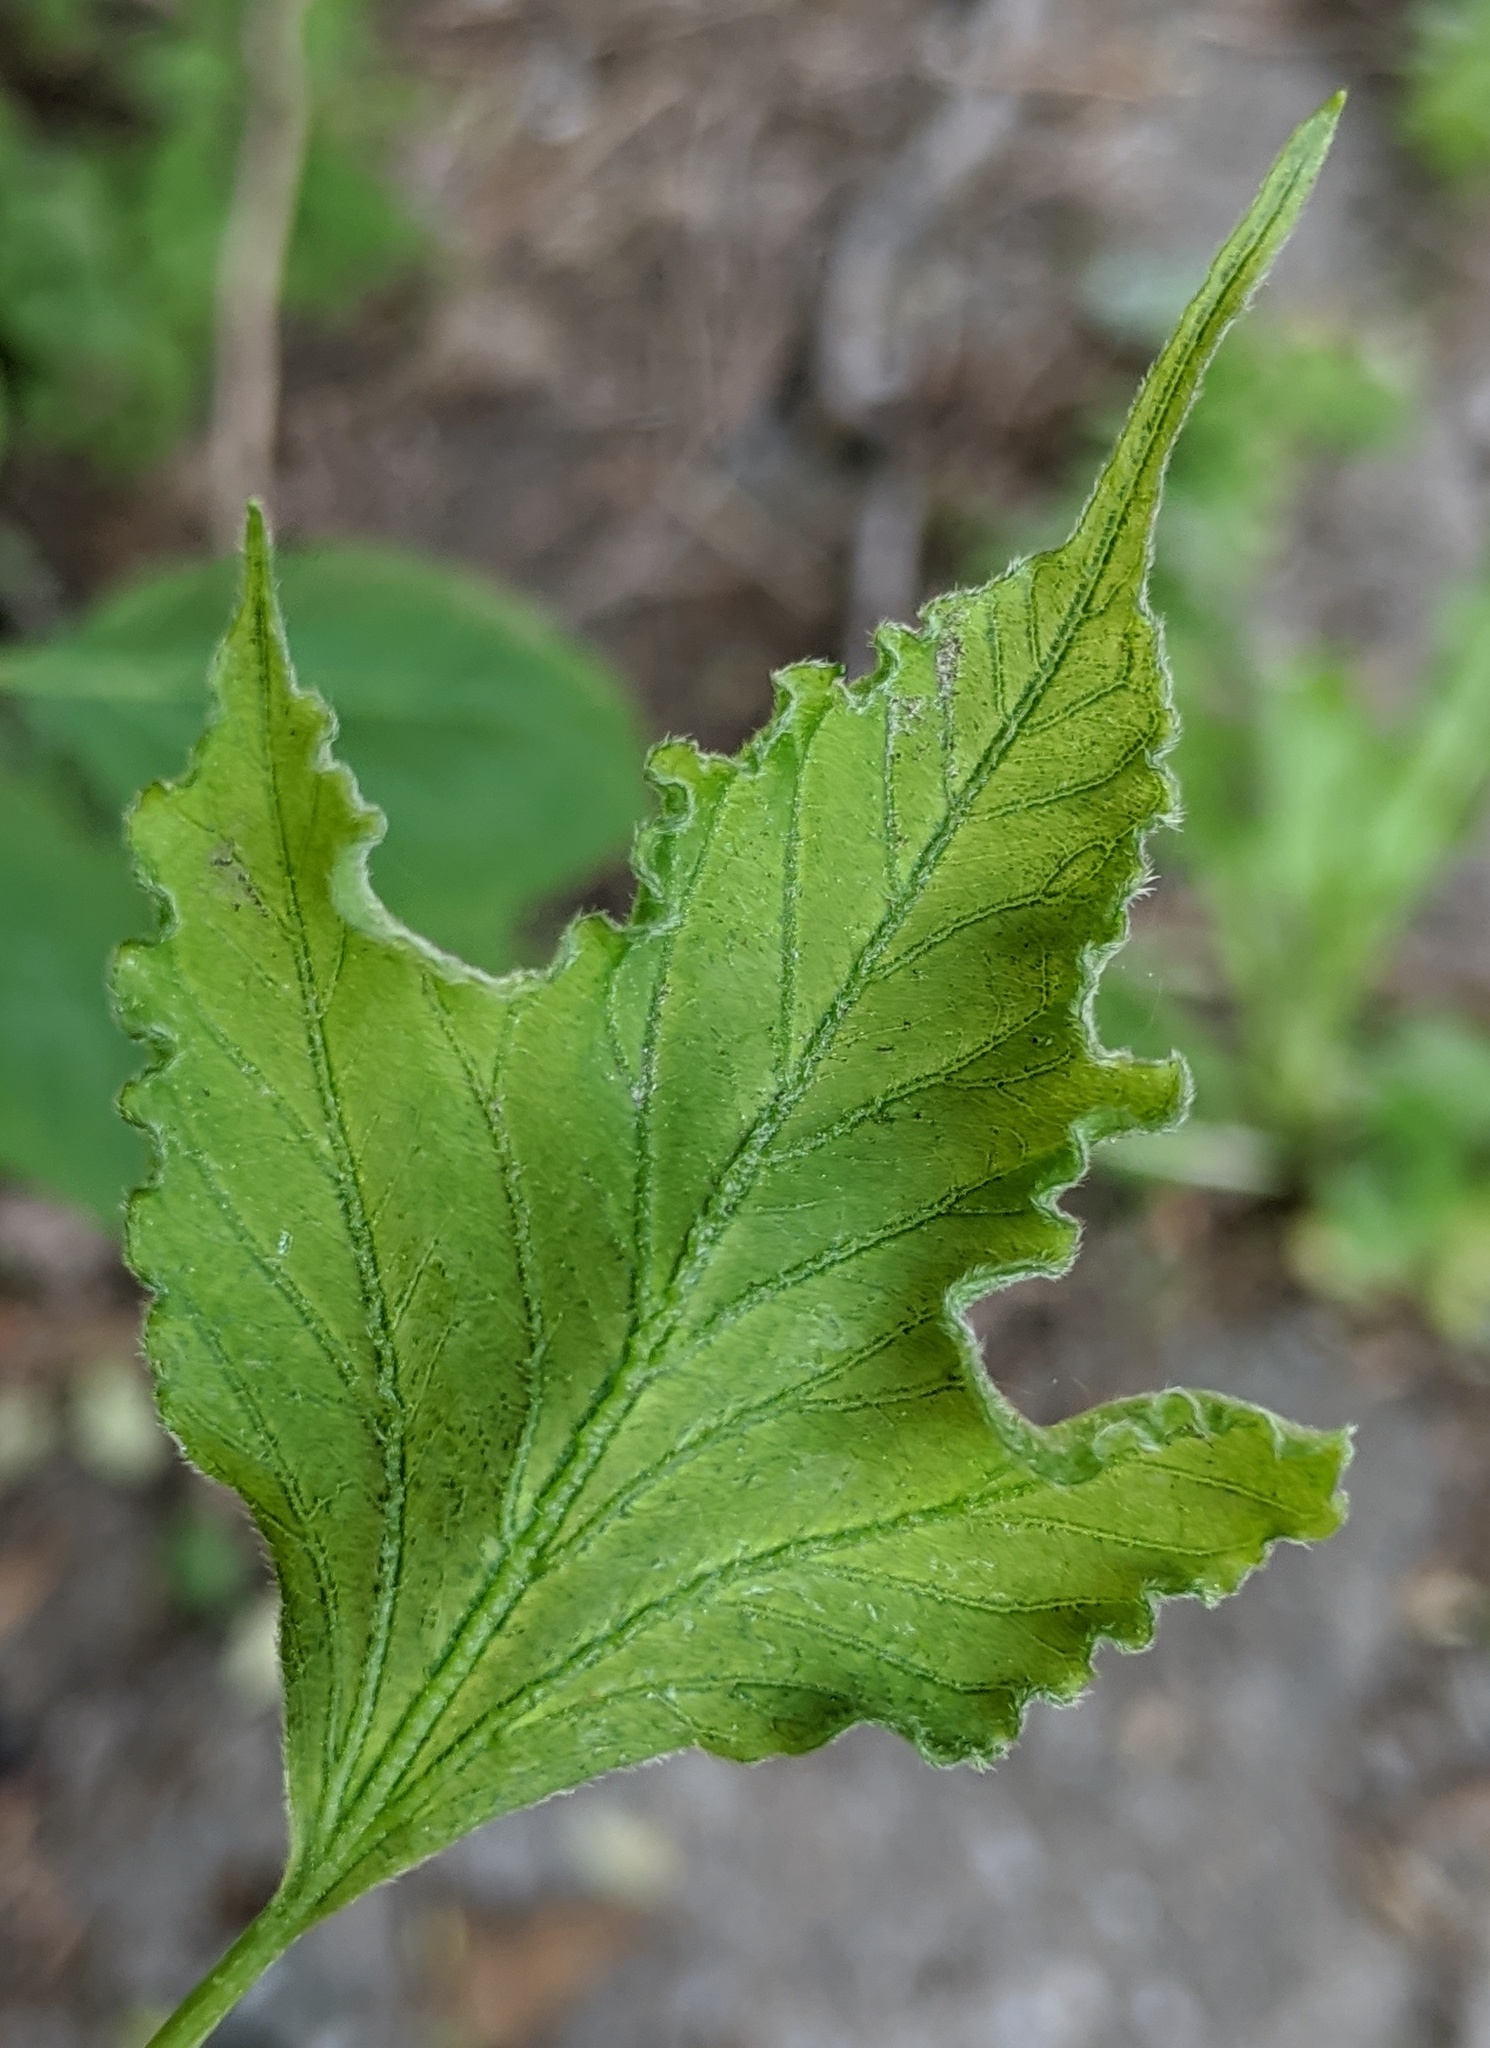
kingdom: Plantae
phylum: Tracheophyta
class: Magnoliopsida
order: Sapindales
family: Sapindaceae
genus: Acer
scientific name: Acer negundo
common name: Ashleaf maple
